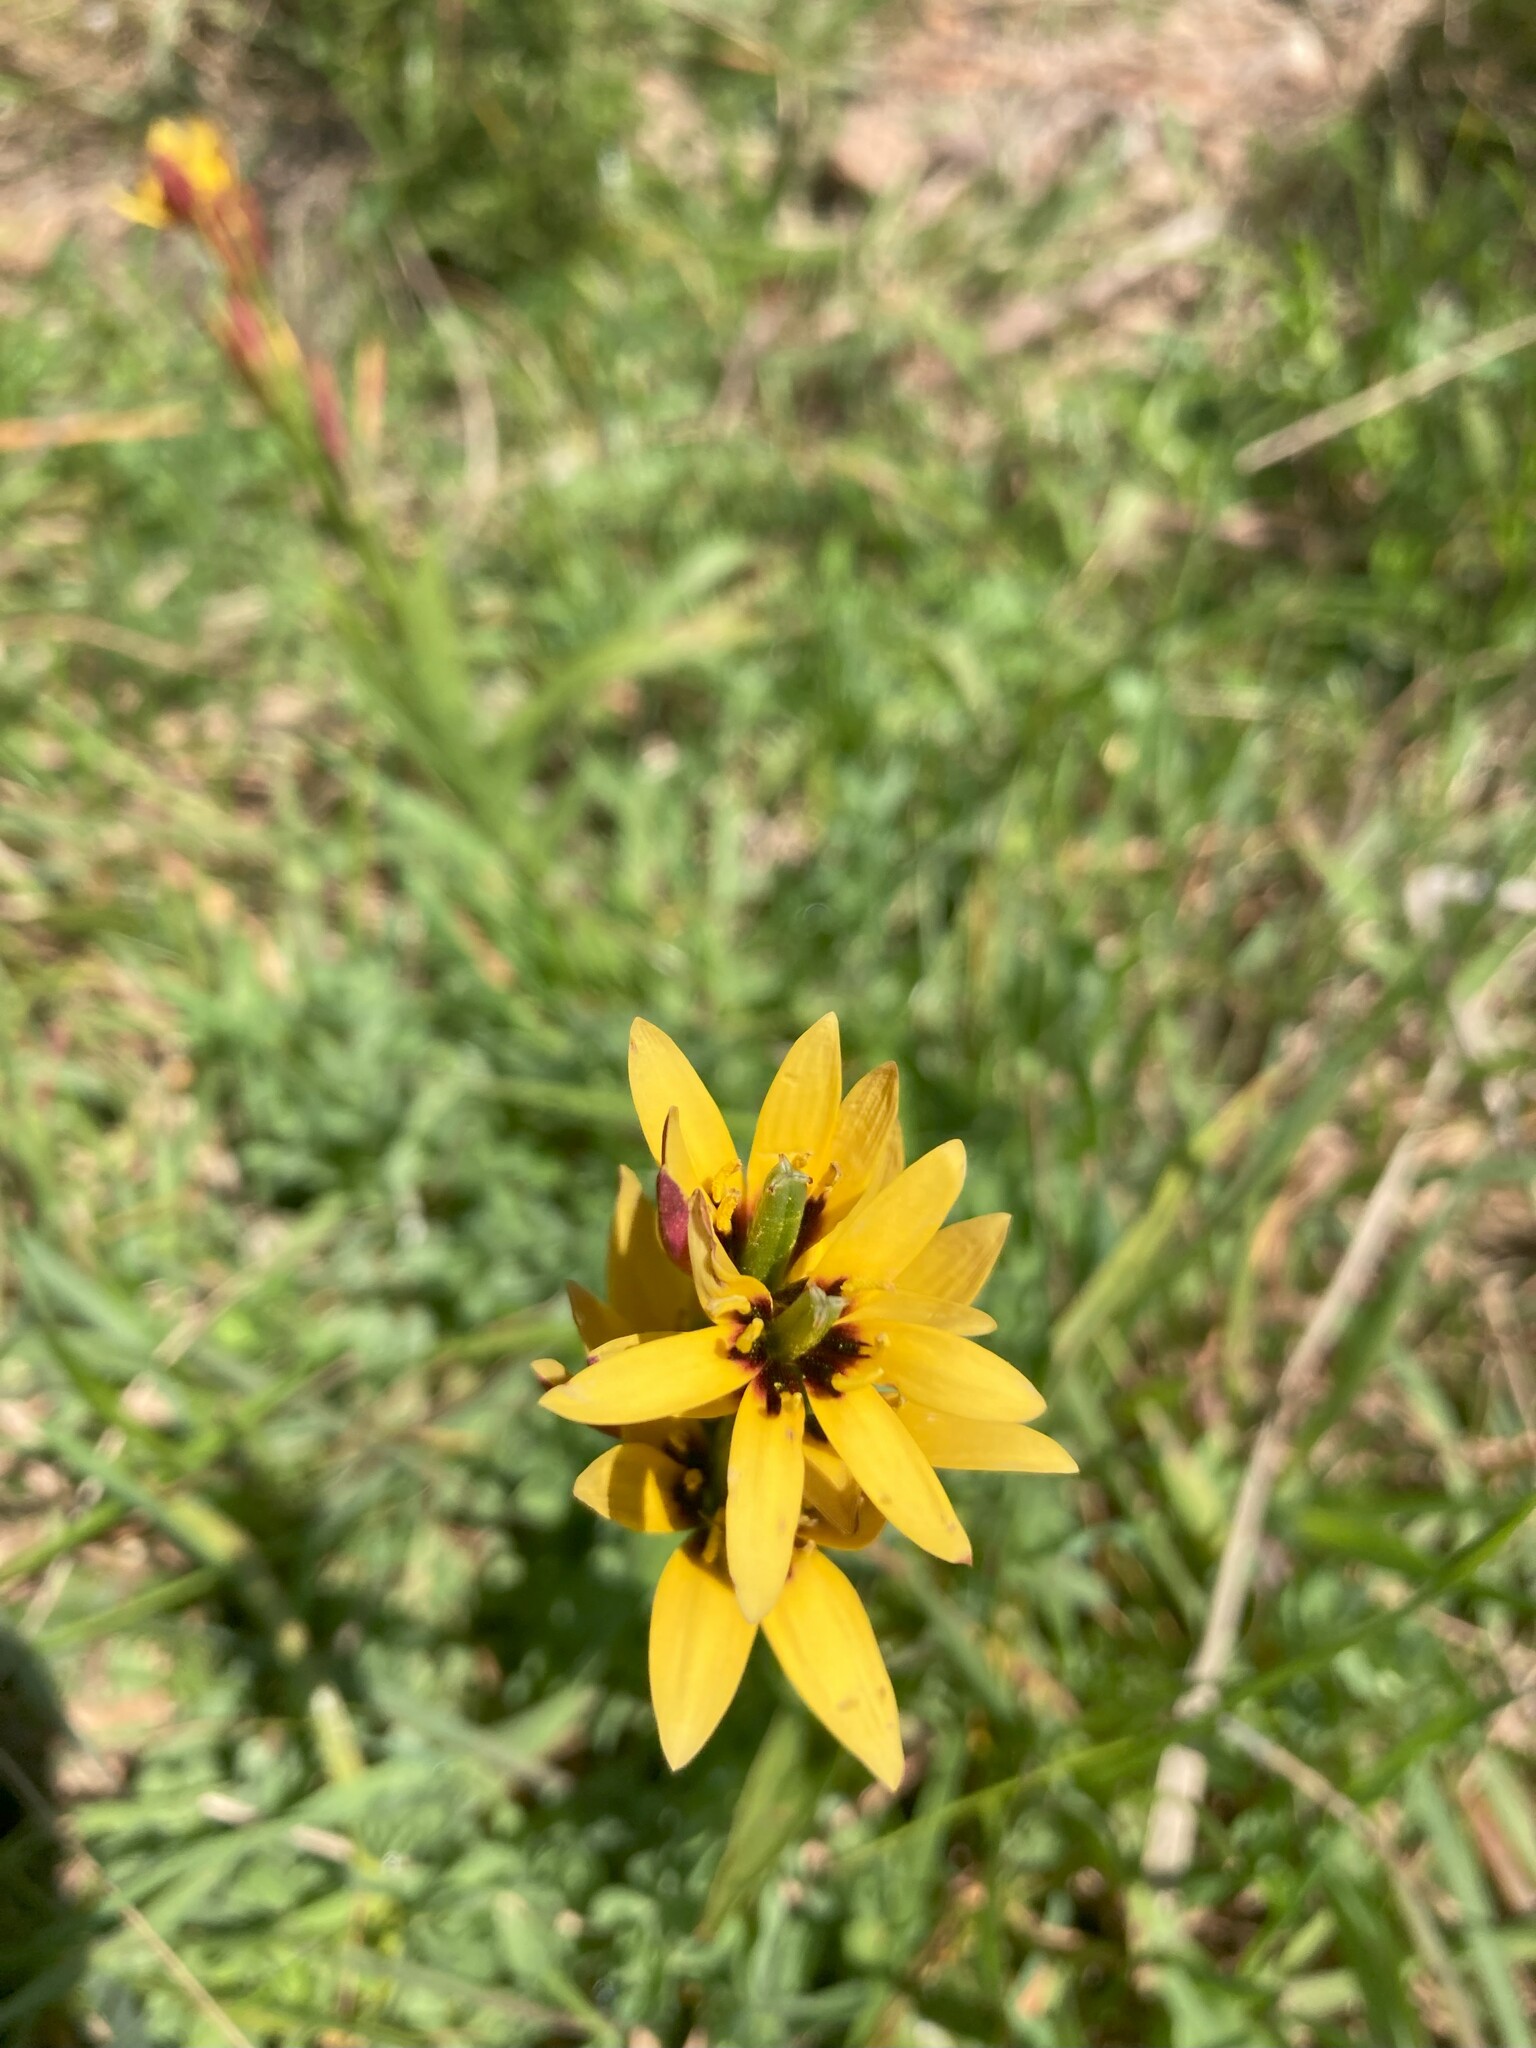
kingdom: Plantae
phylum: Tracheophyta
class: Liliopsida
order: Liliales
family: Colchicaceae
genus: Baeometra
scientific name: Baeometra uniflora
